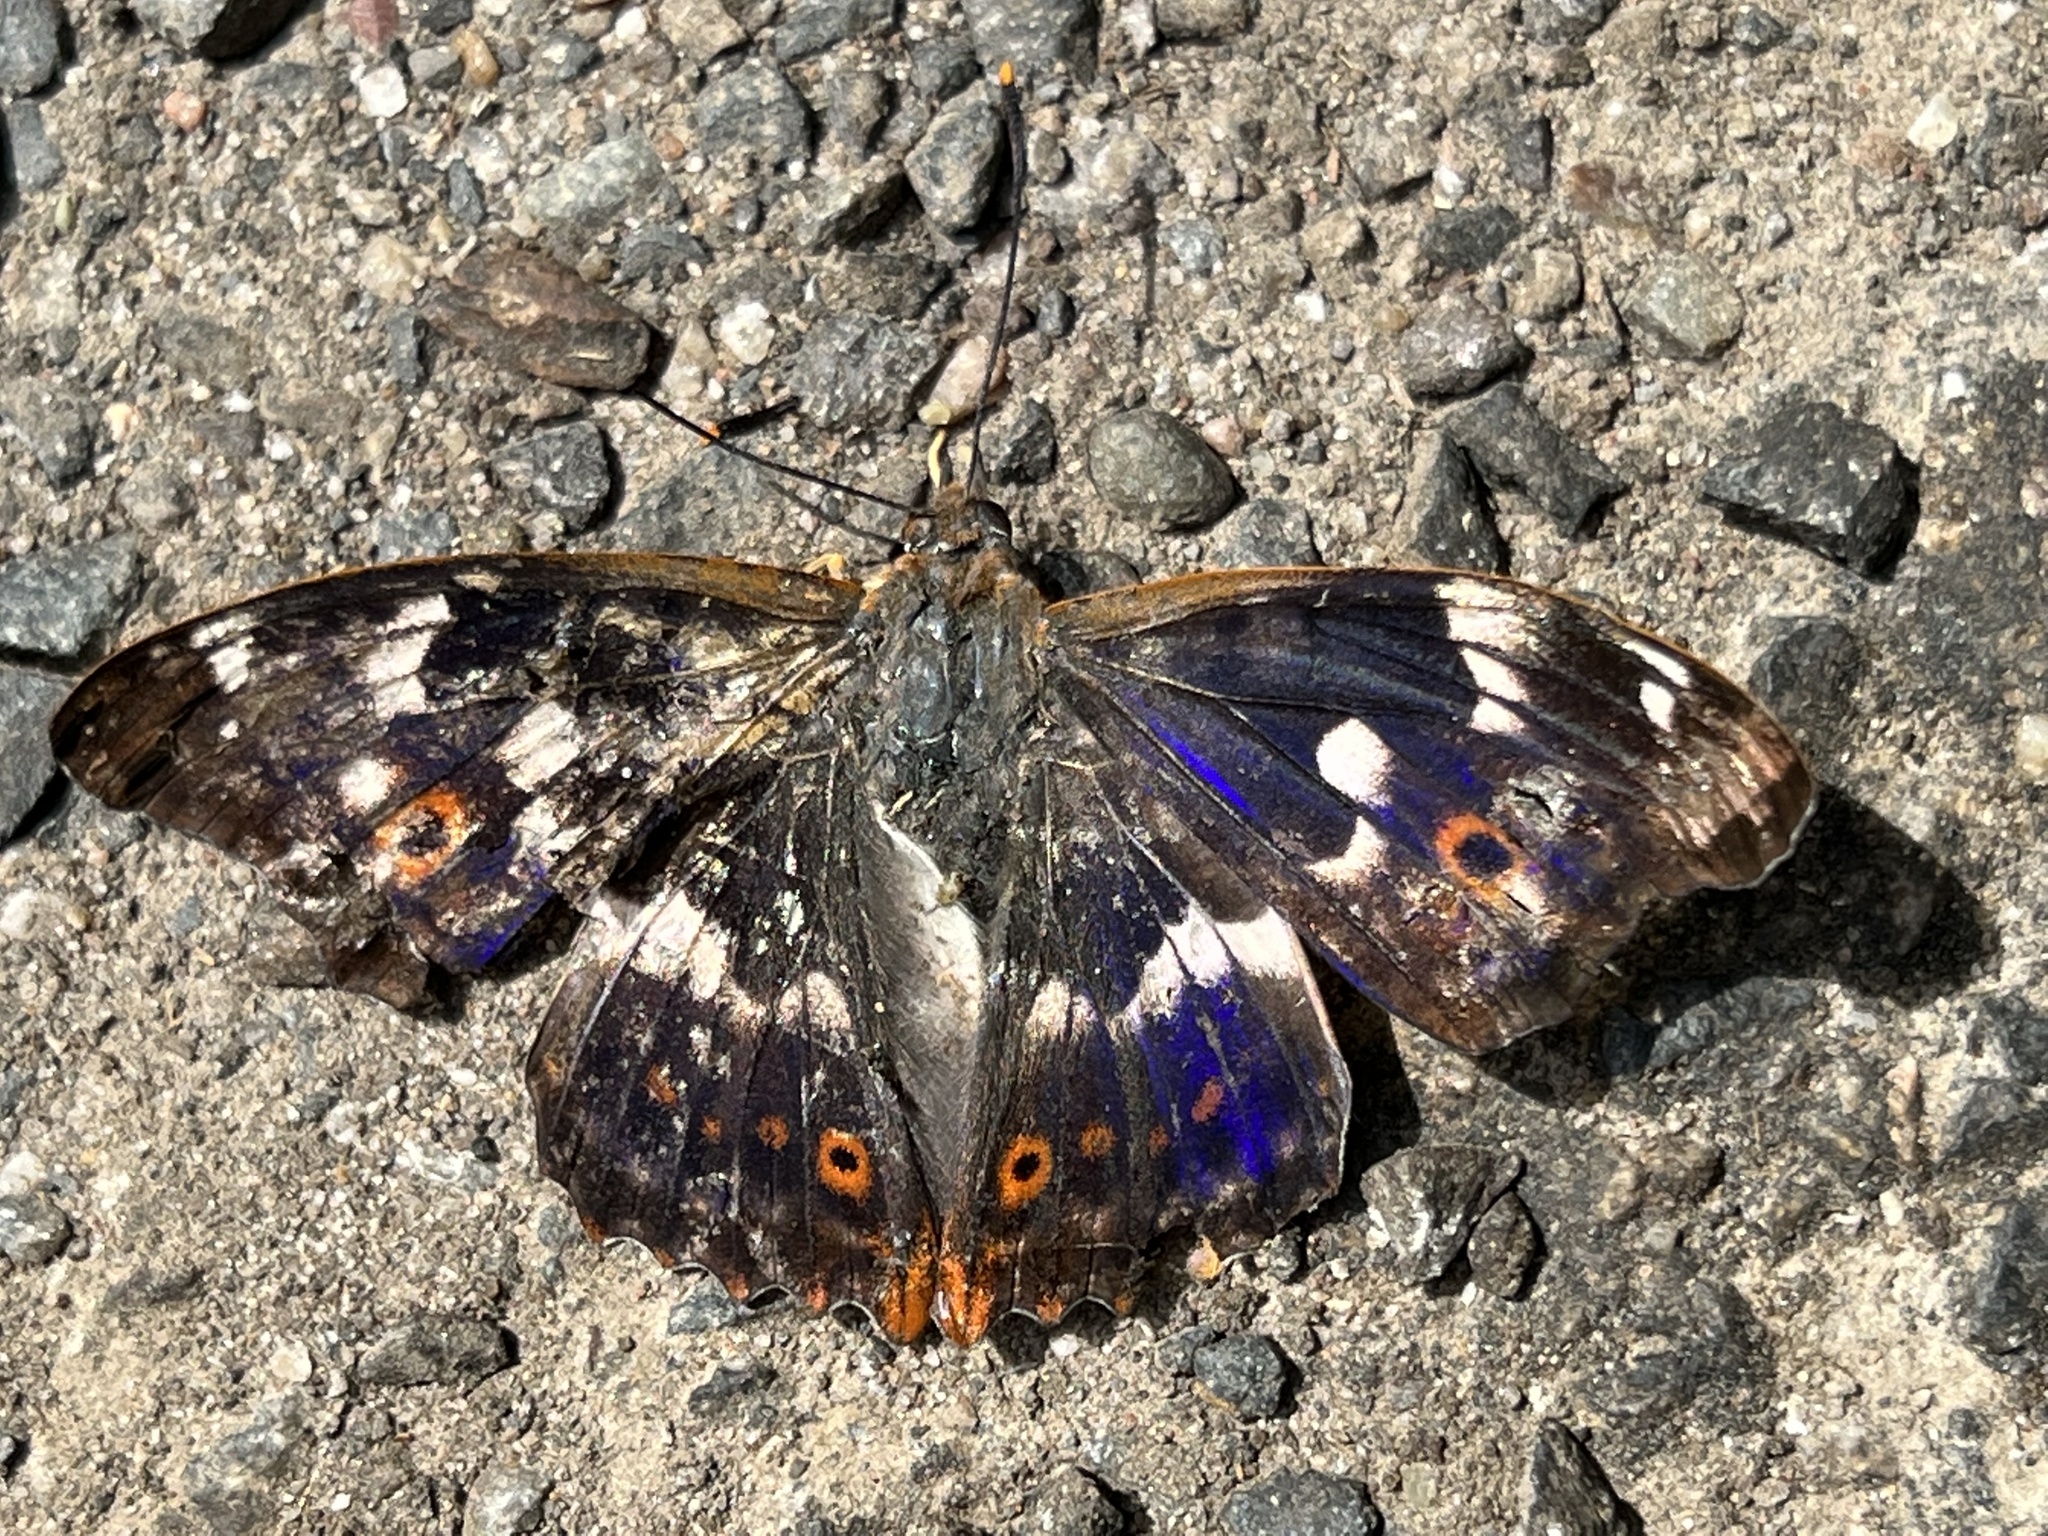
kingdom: Animalia
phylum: Arthropoda
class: Insecta
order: Lepidoptera
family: Nymphalidae
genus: Apatura
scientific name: Apatura ilia
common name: Lesser purple emperor
